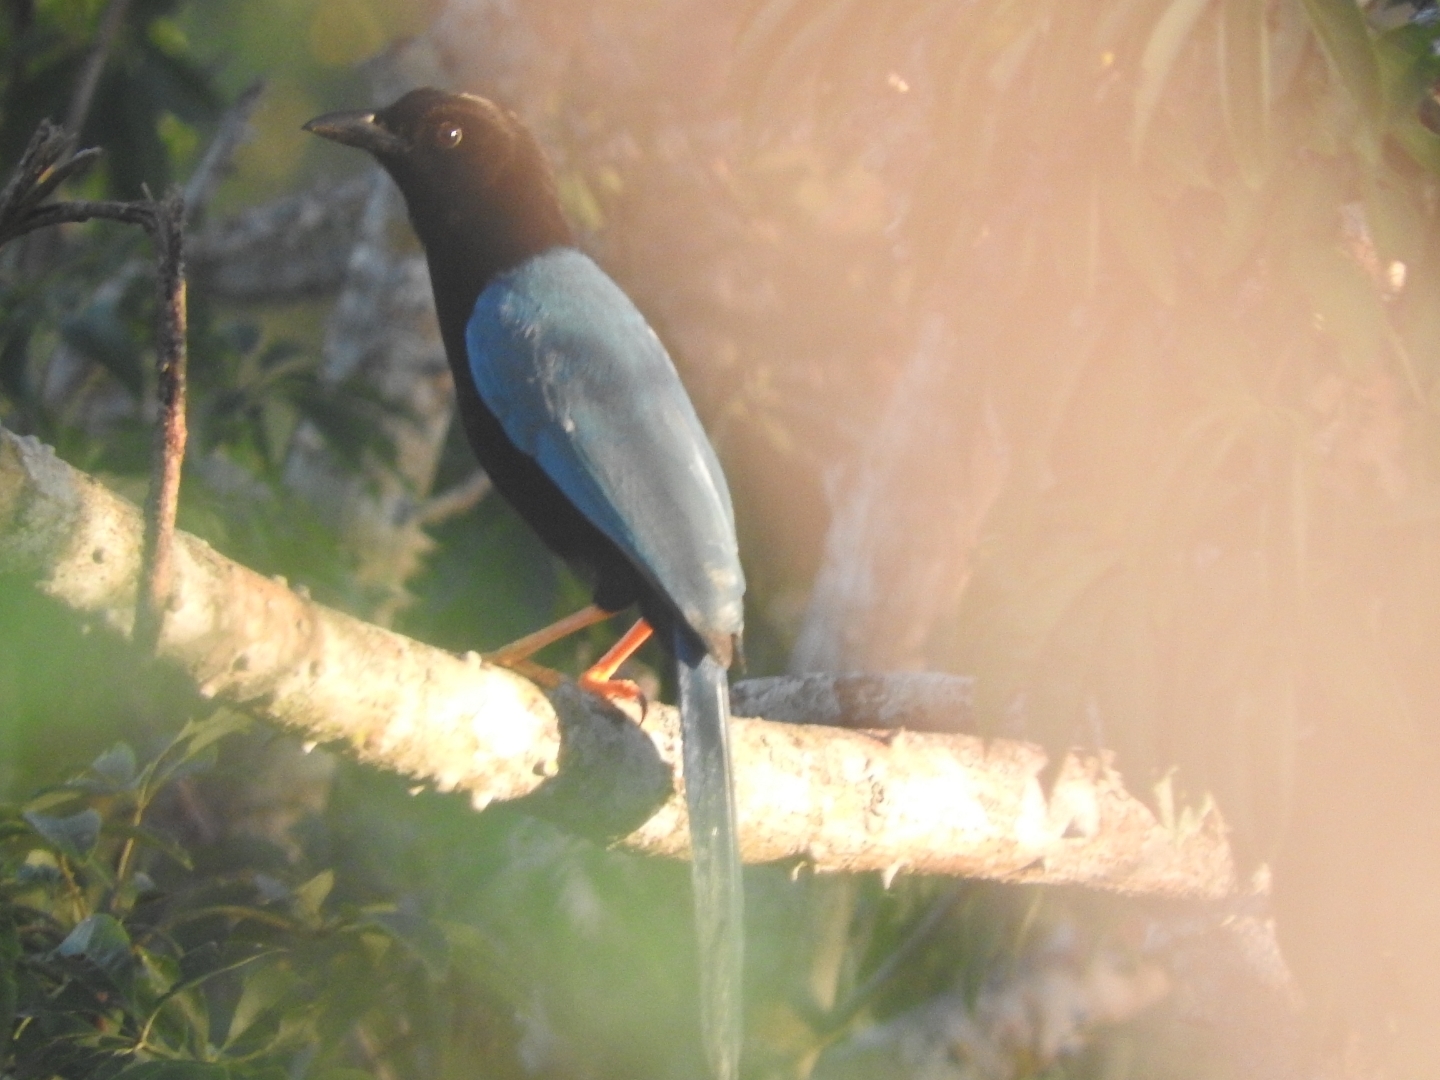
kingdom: Animalia
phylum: Chordata
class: Aves
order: Passeriformes
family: Corvidae
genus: Cyanocorax
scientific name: Cyanocorax yucatanicus
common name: Yucatan jay
